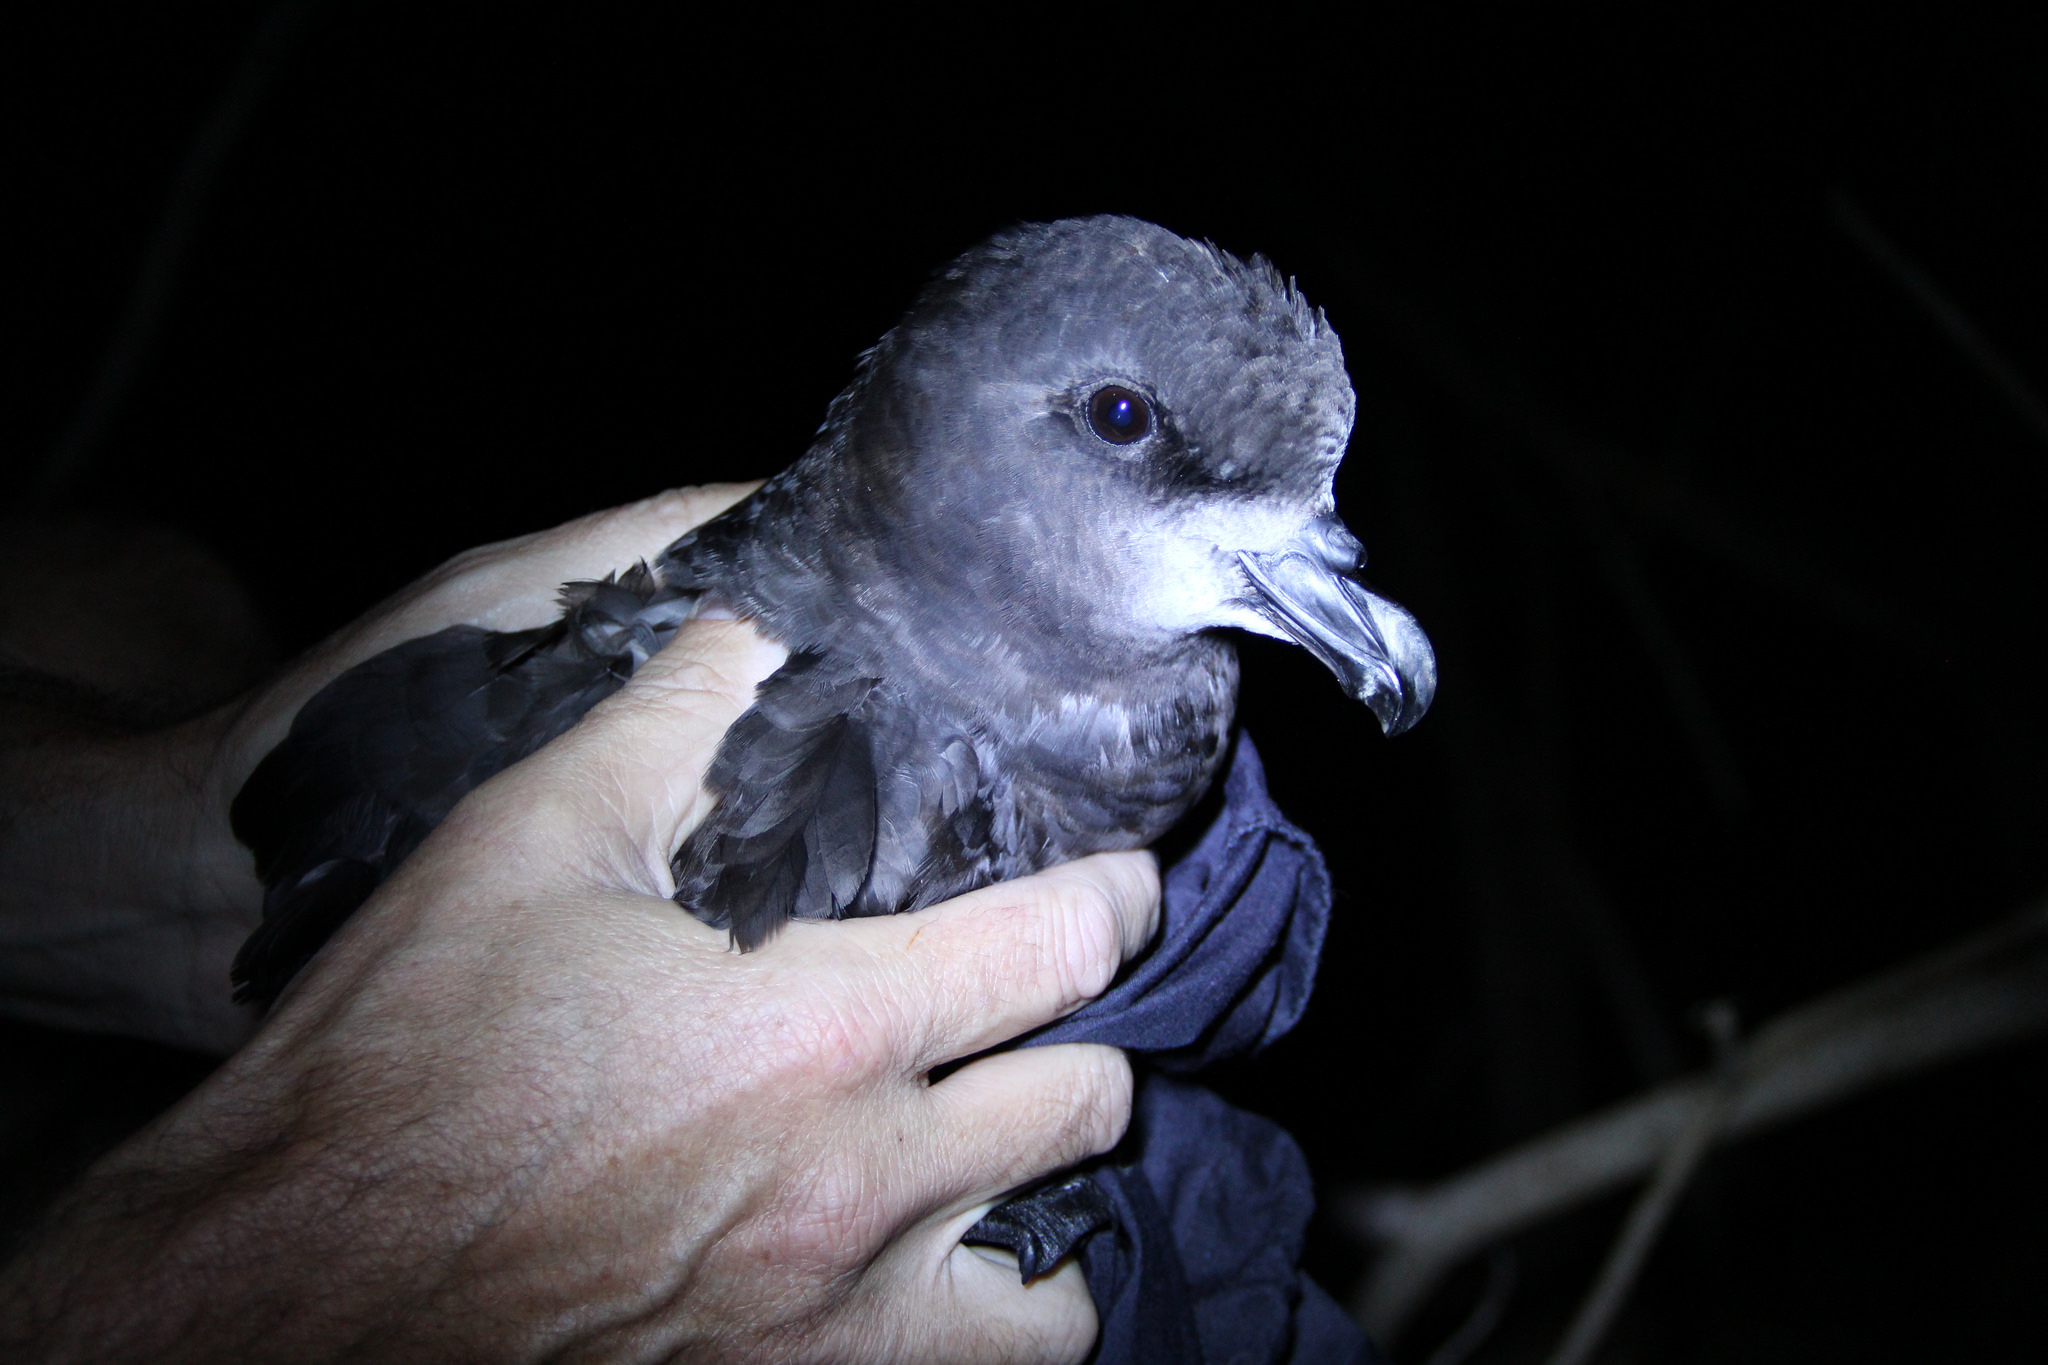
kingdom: Animalia
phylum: Chordata
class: Aves
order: Procellariiformes
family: Procellariidae
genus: Pterodroma
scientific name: Pterodroma macroptera
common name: Great-winged petrel
